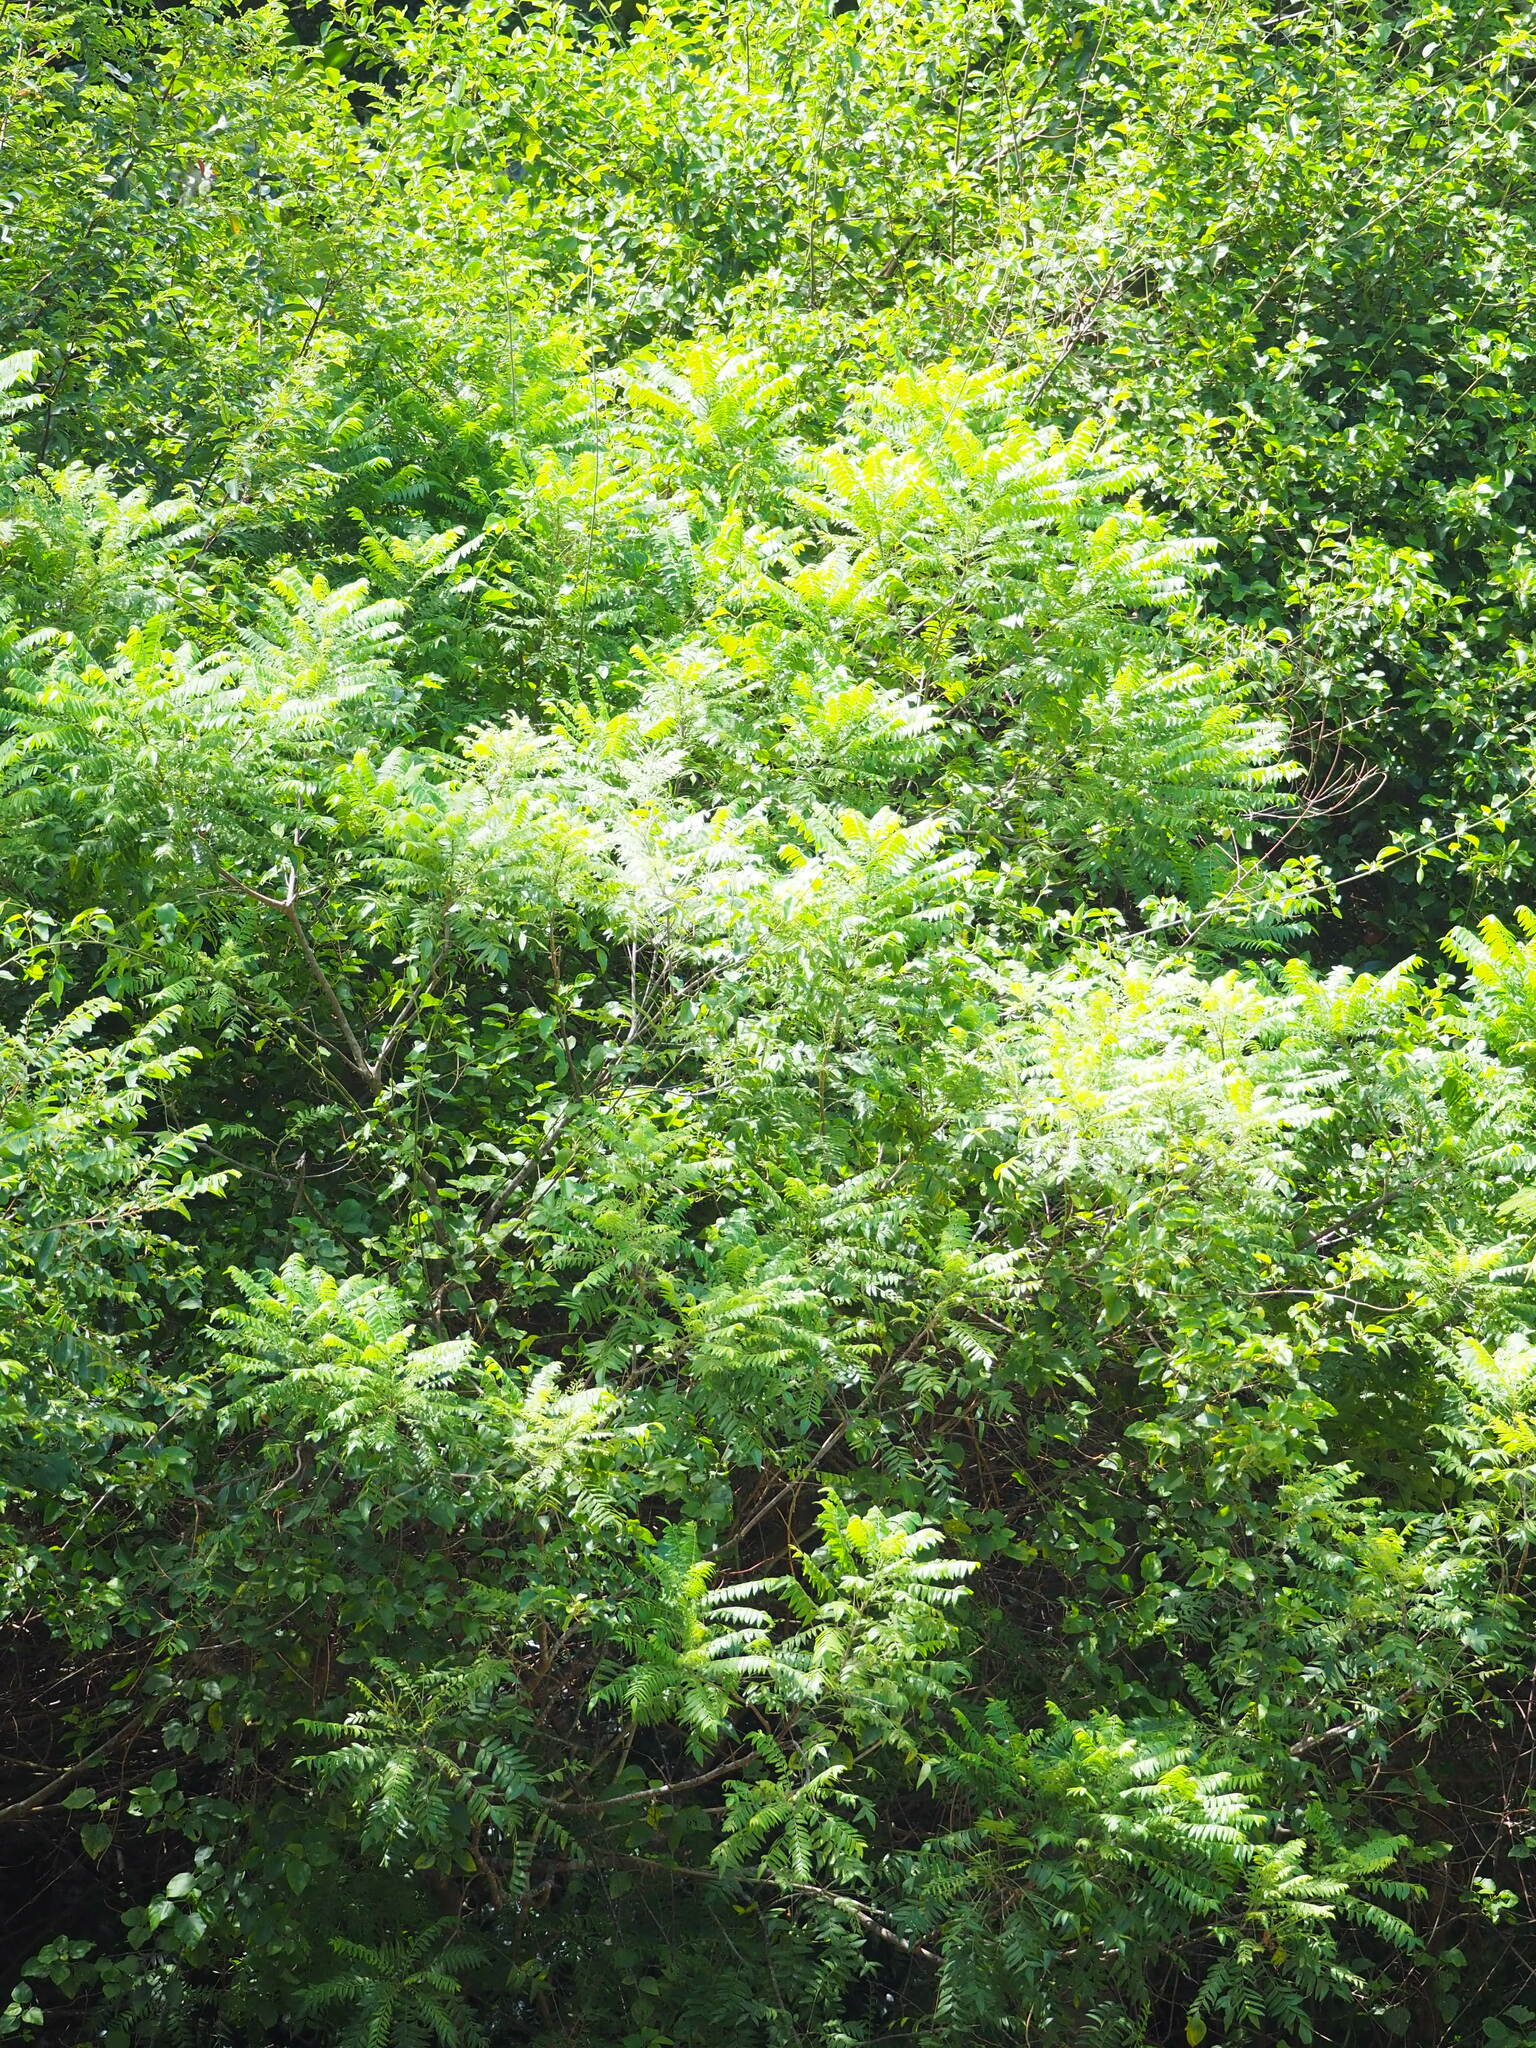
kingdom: Plantae
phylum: Tracheophyta
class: Magnoliopsida
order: Sapindales
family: Rutaceae
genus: Clausena
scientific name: Clausena excavata
